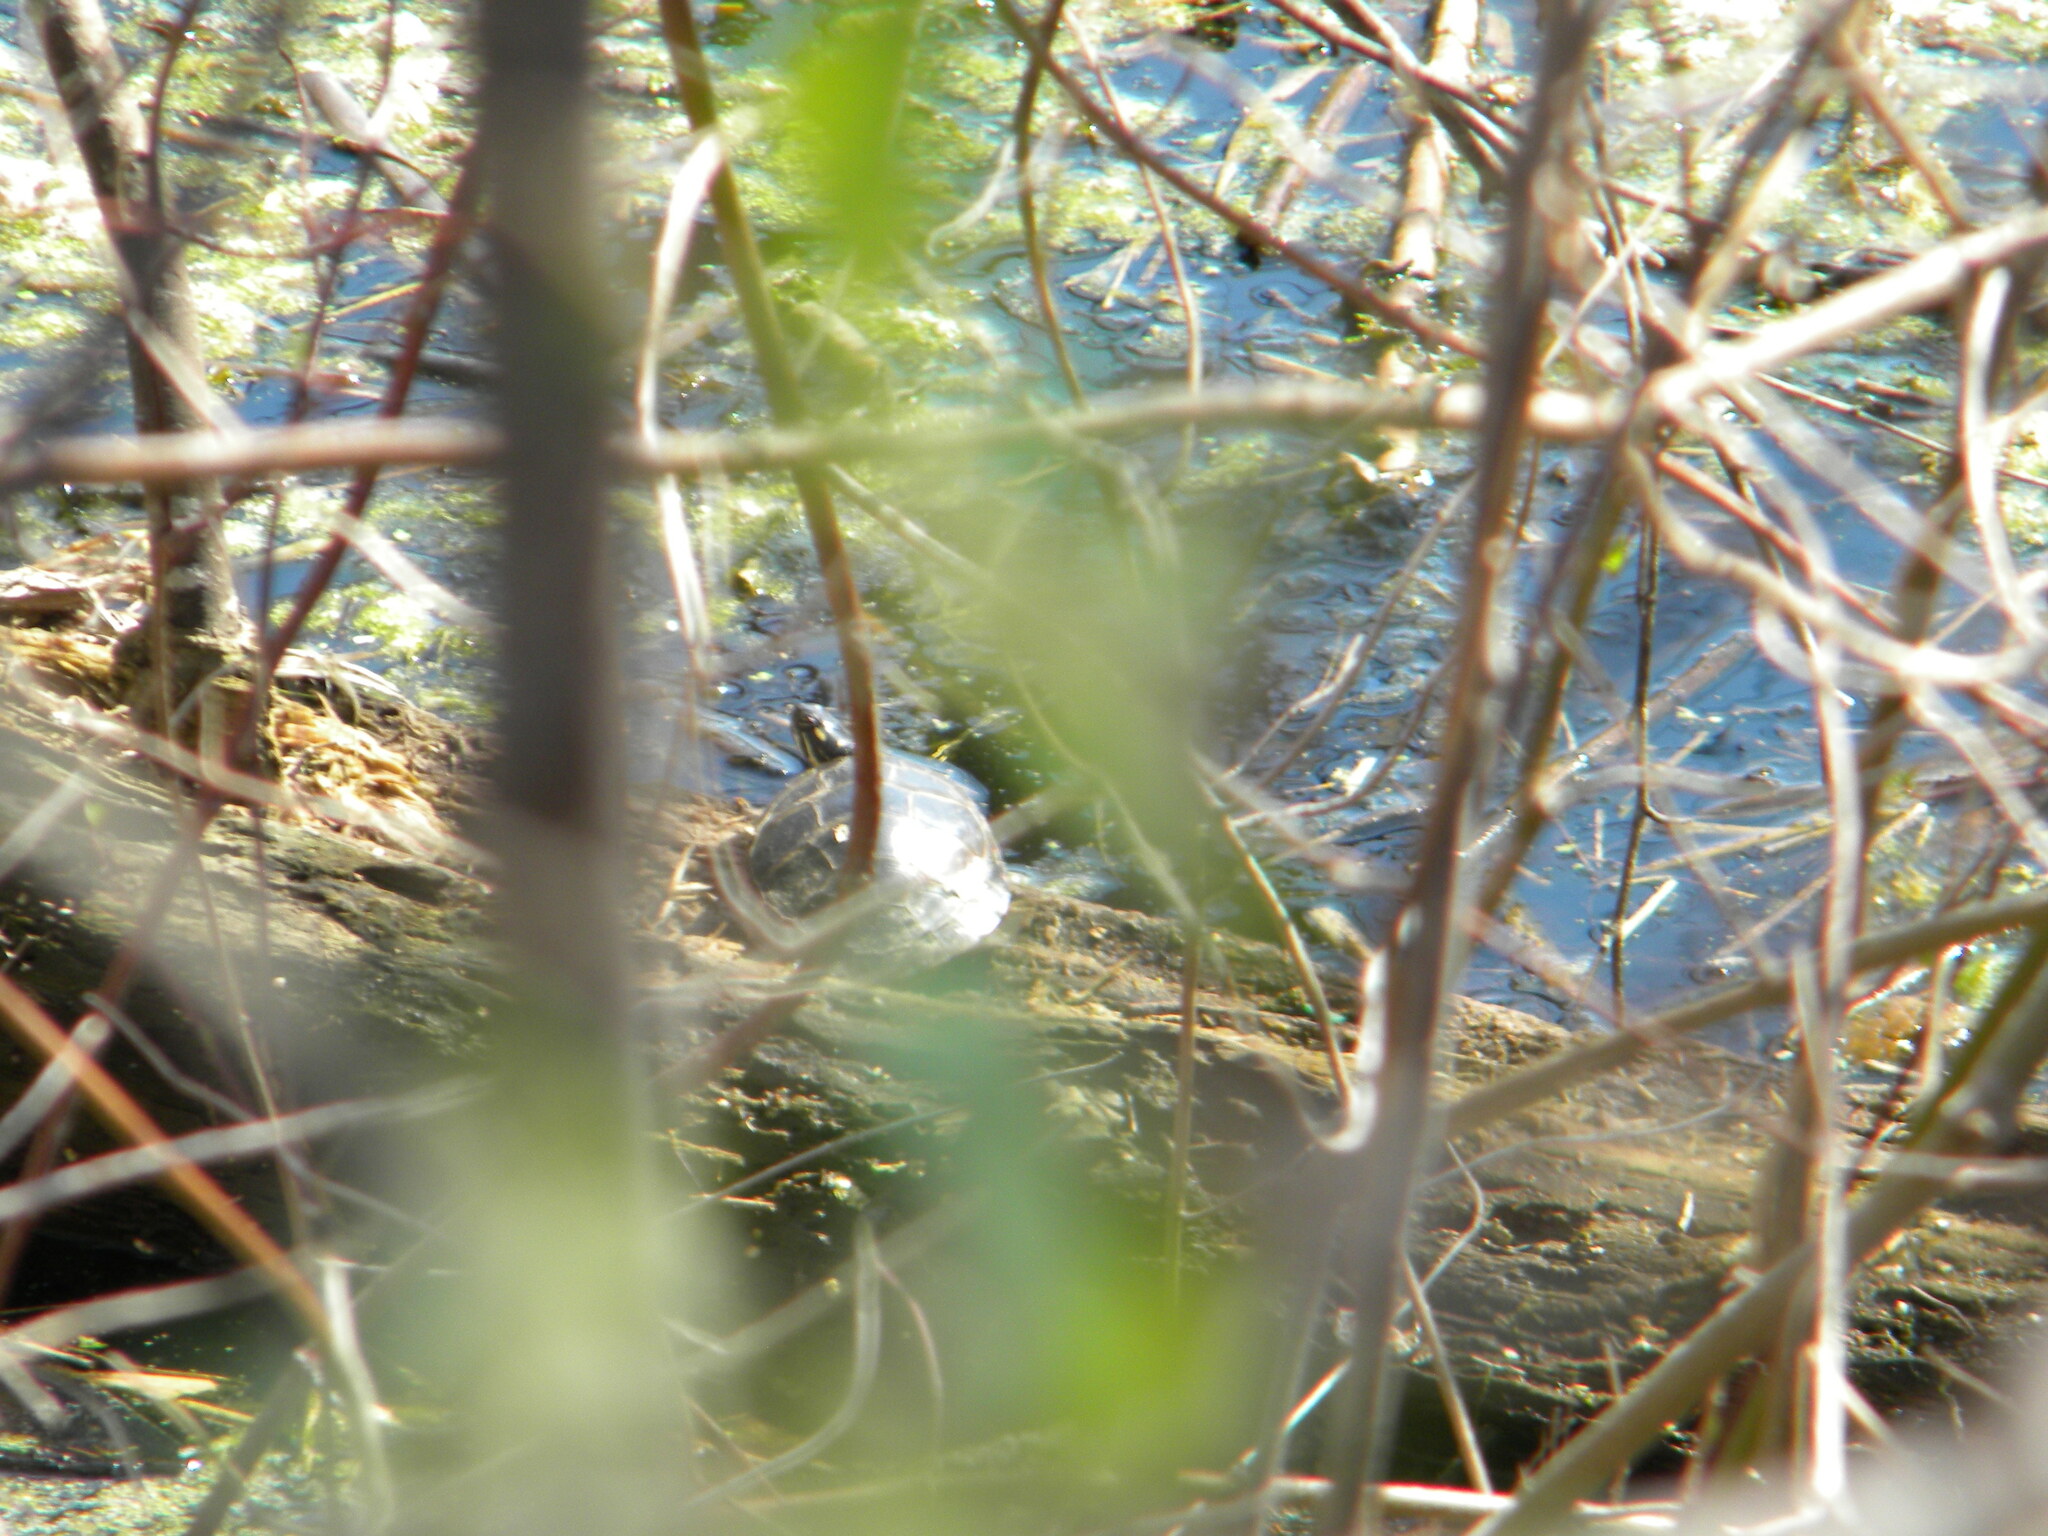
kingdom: Animalia
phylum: Chordata
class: Testudines
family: Emydidae
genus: Chrysemys
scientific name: Chrysemys picta
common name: Painted turtle
